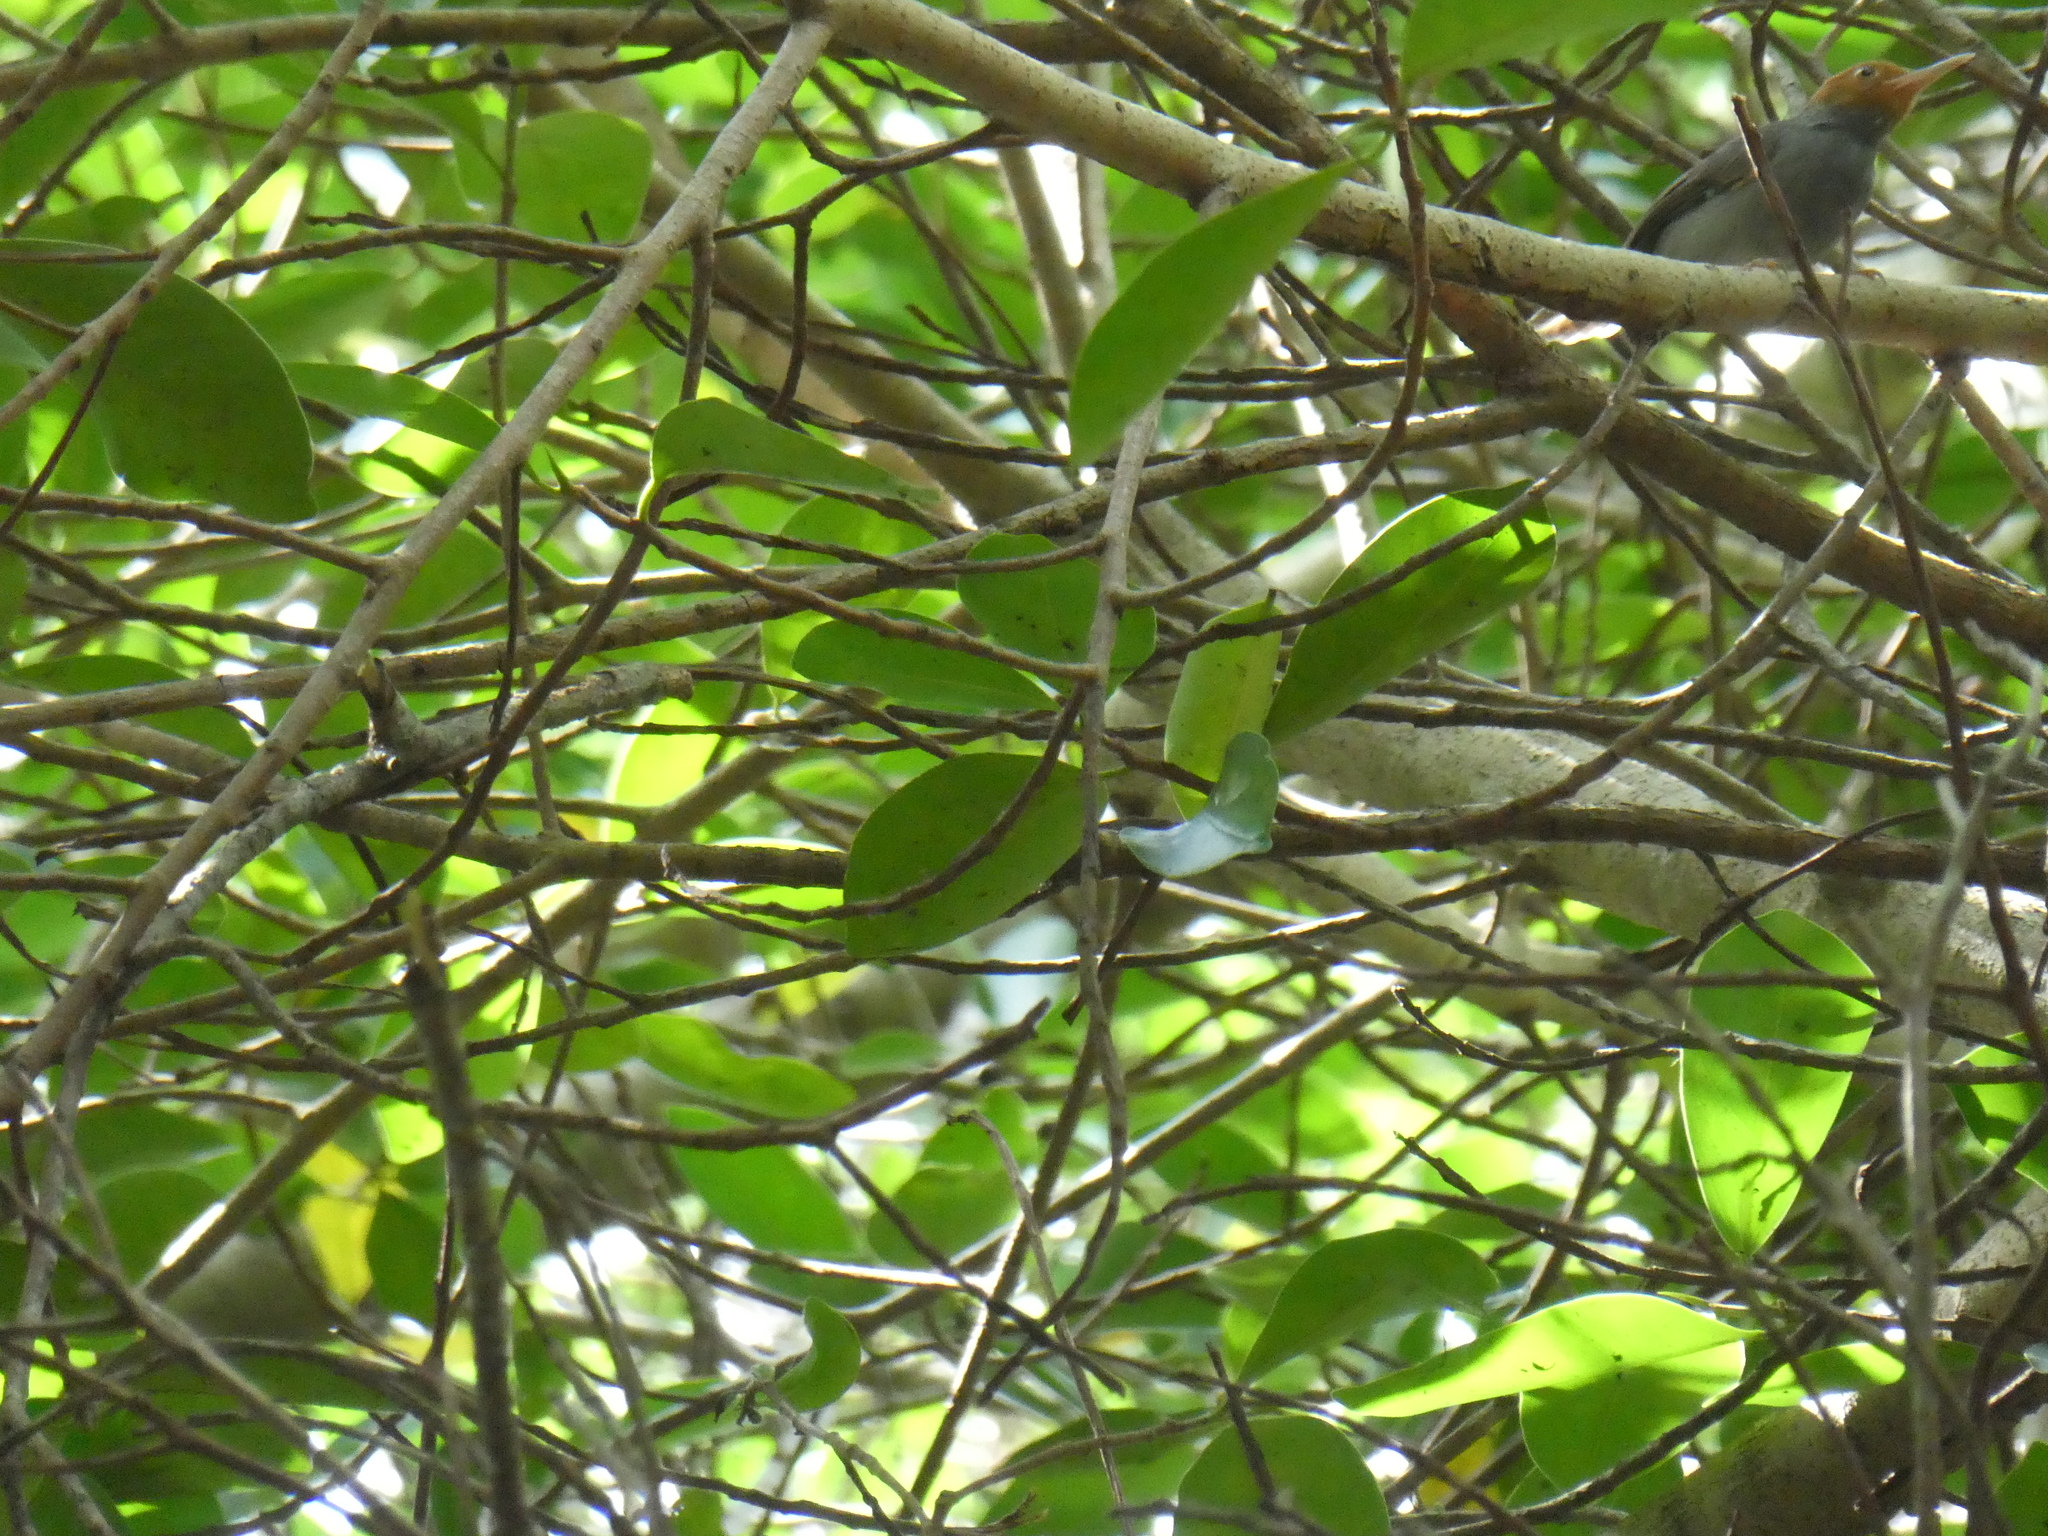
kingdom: Animalia
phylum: Chordata
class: Aves
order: Passeriformes
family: Cisticolidae
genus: Orthotomus
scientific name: Orthotomus ruficeps
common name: Ashy tailorbird
